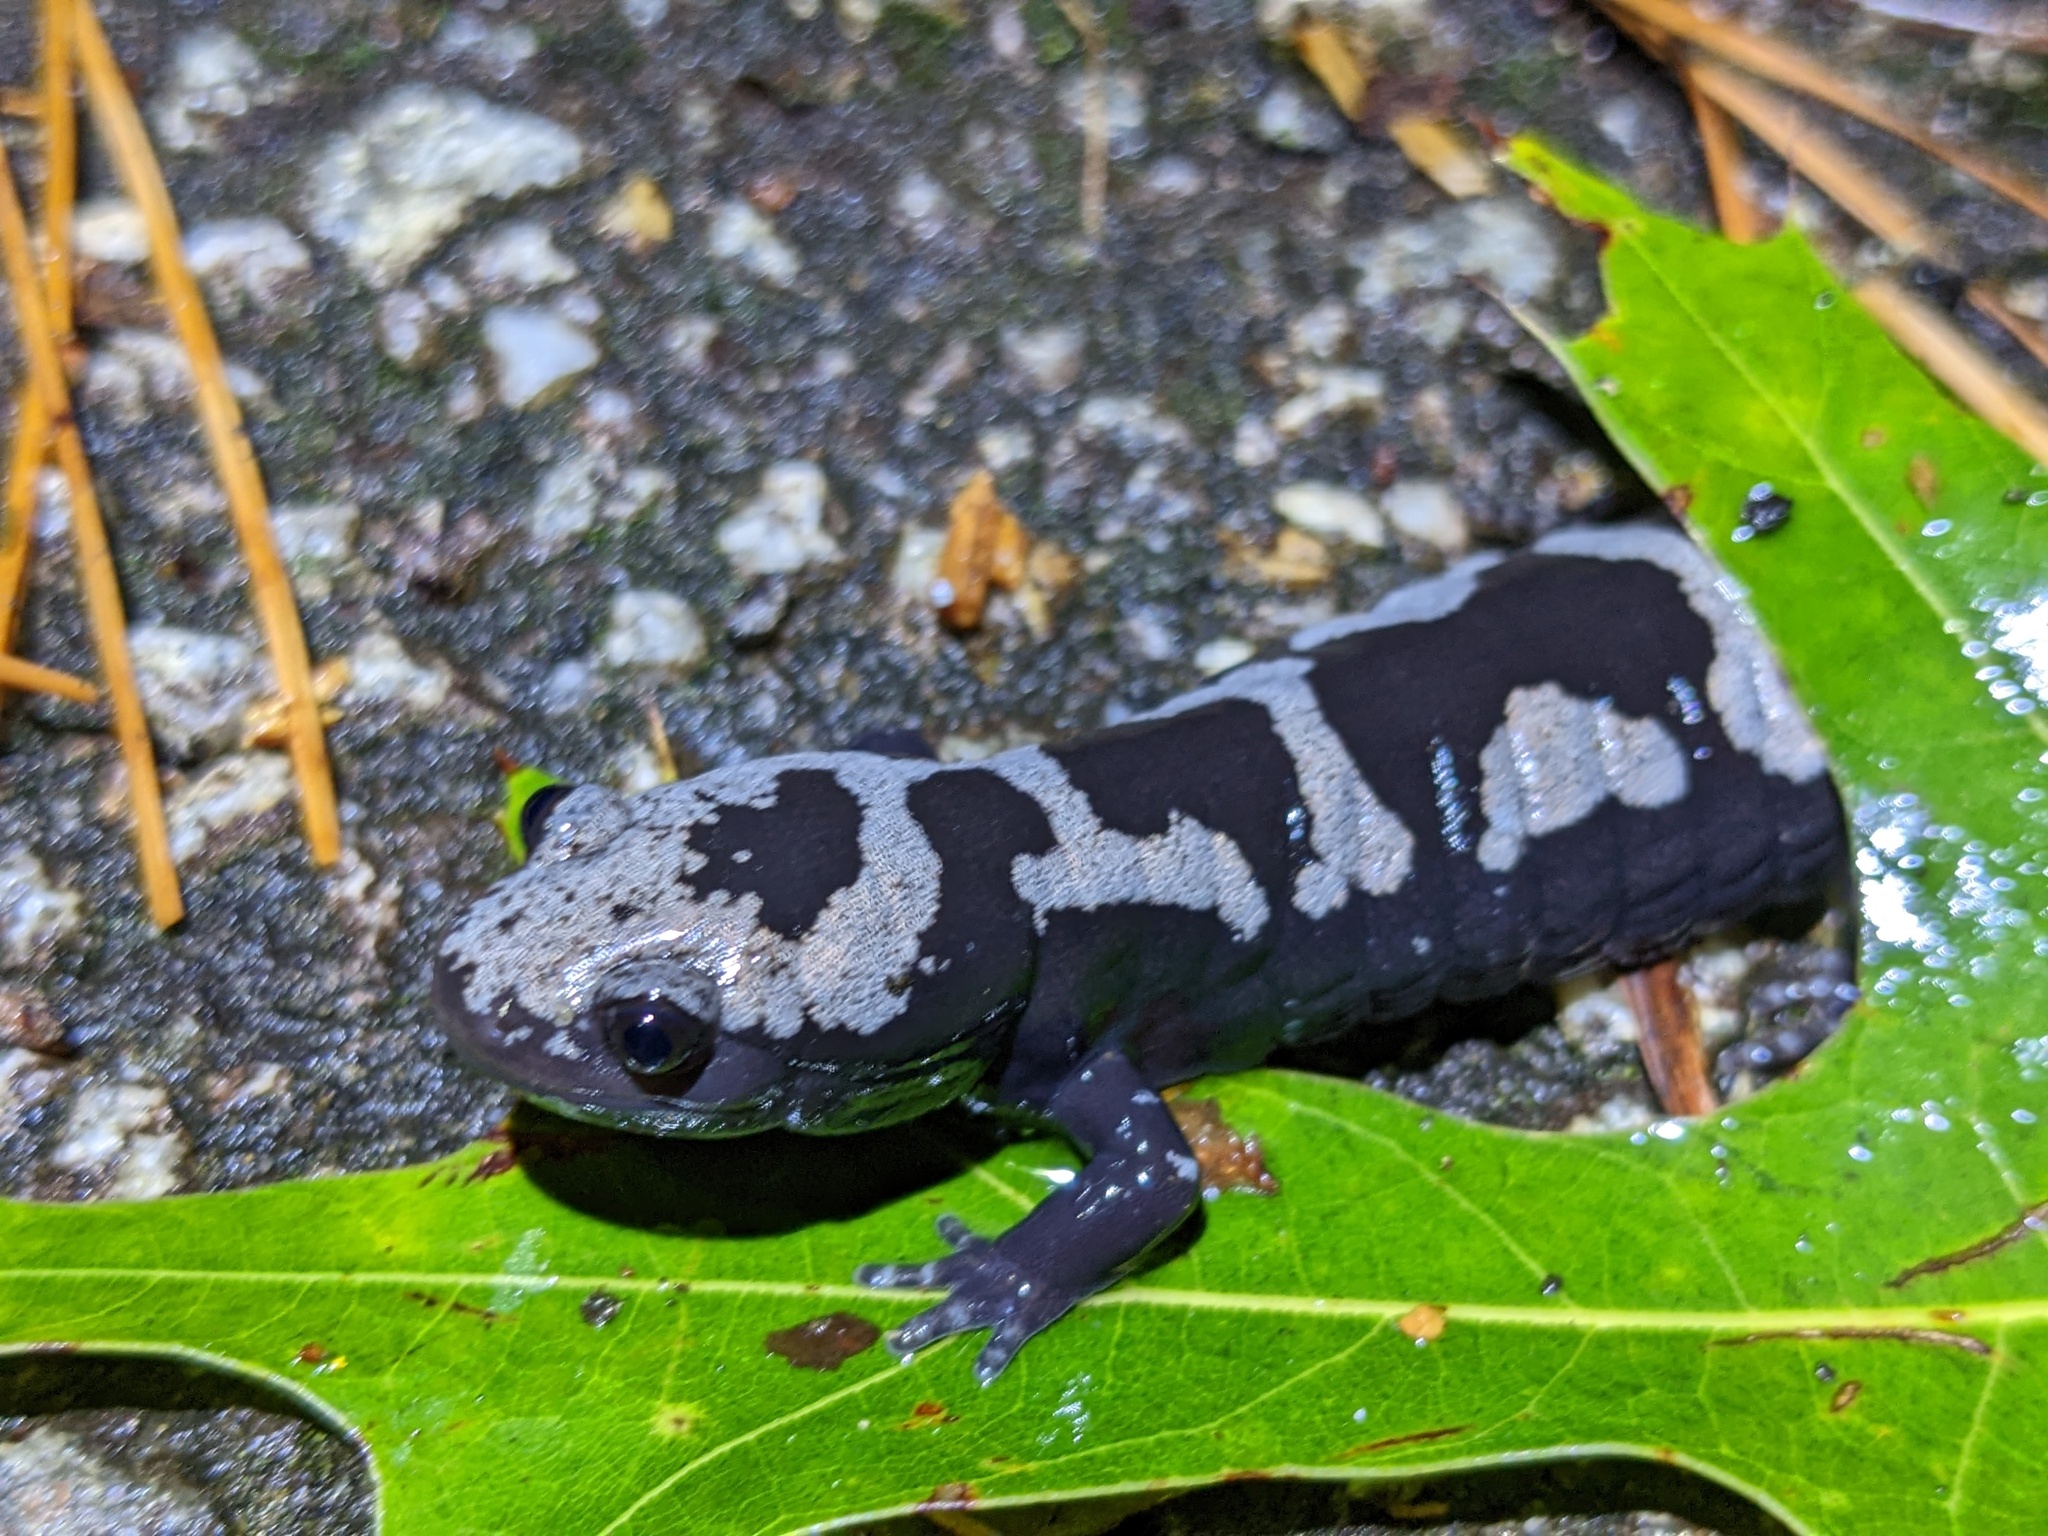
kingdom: Animalia
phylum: Chordata
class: Amphibia
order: Caudata
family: Ambystomatidae
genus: Ambystoma
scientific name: Ambystoma opacum
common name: Marbled salamander
